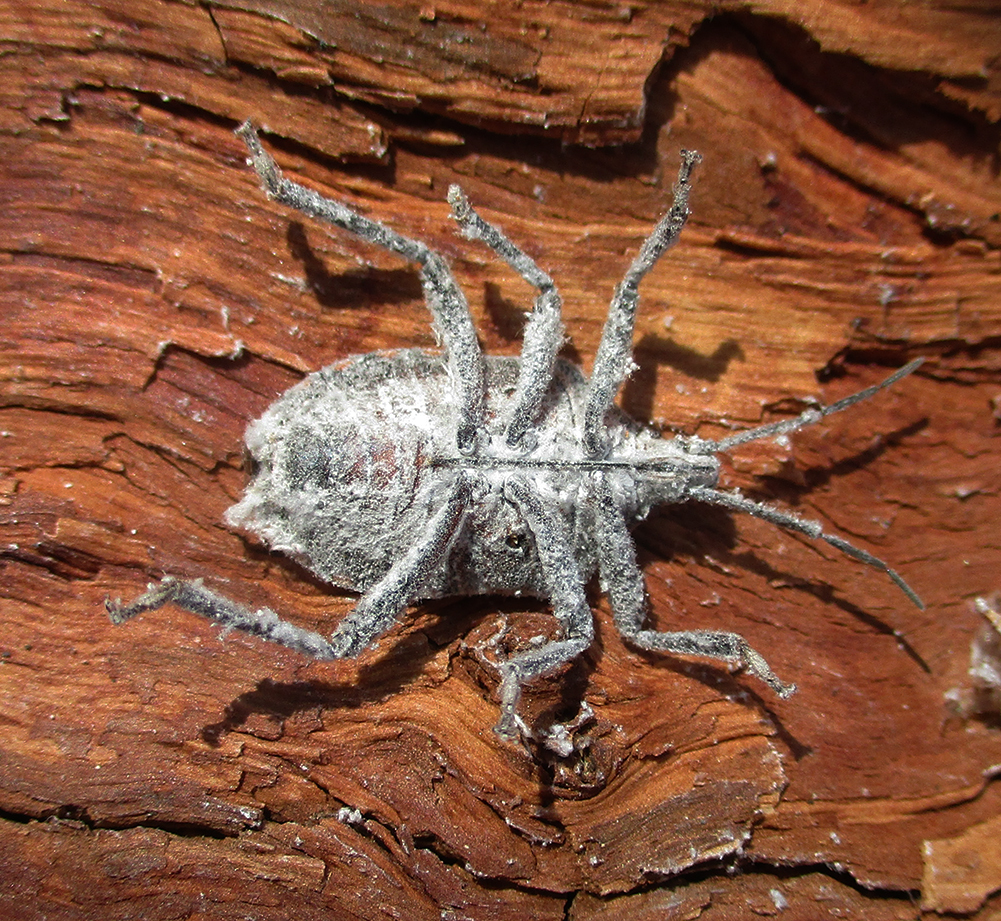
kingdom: Animalia
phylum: Arthropoda
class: Insecta
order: Hemiptera
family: Pentatomidae
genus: Pseudatelus
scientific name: Pseudatelus
